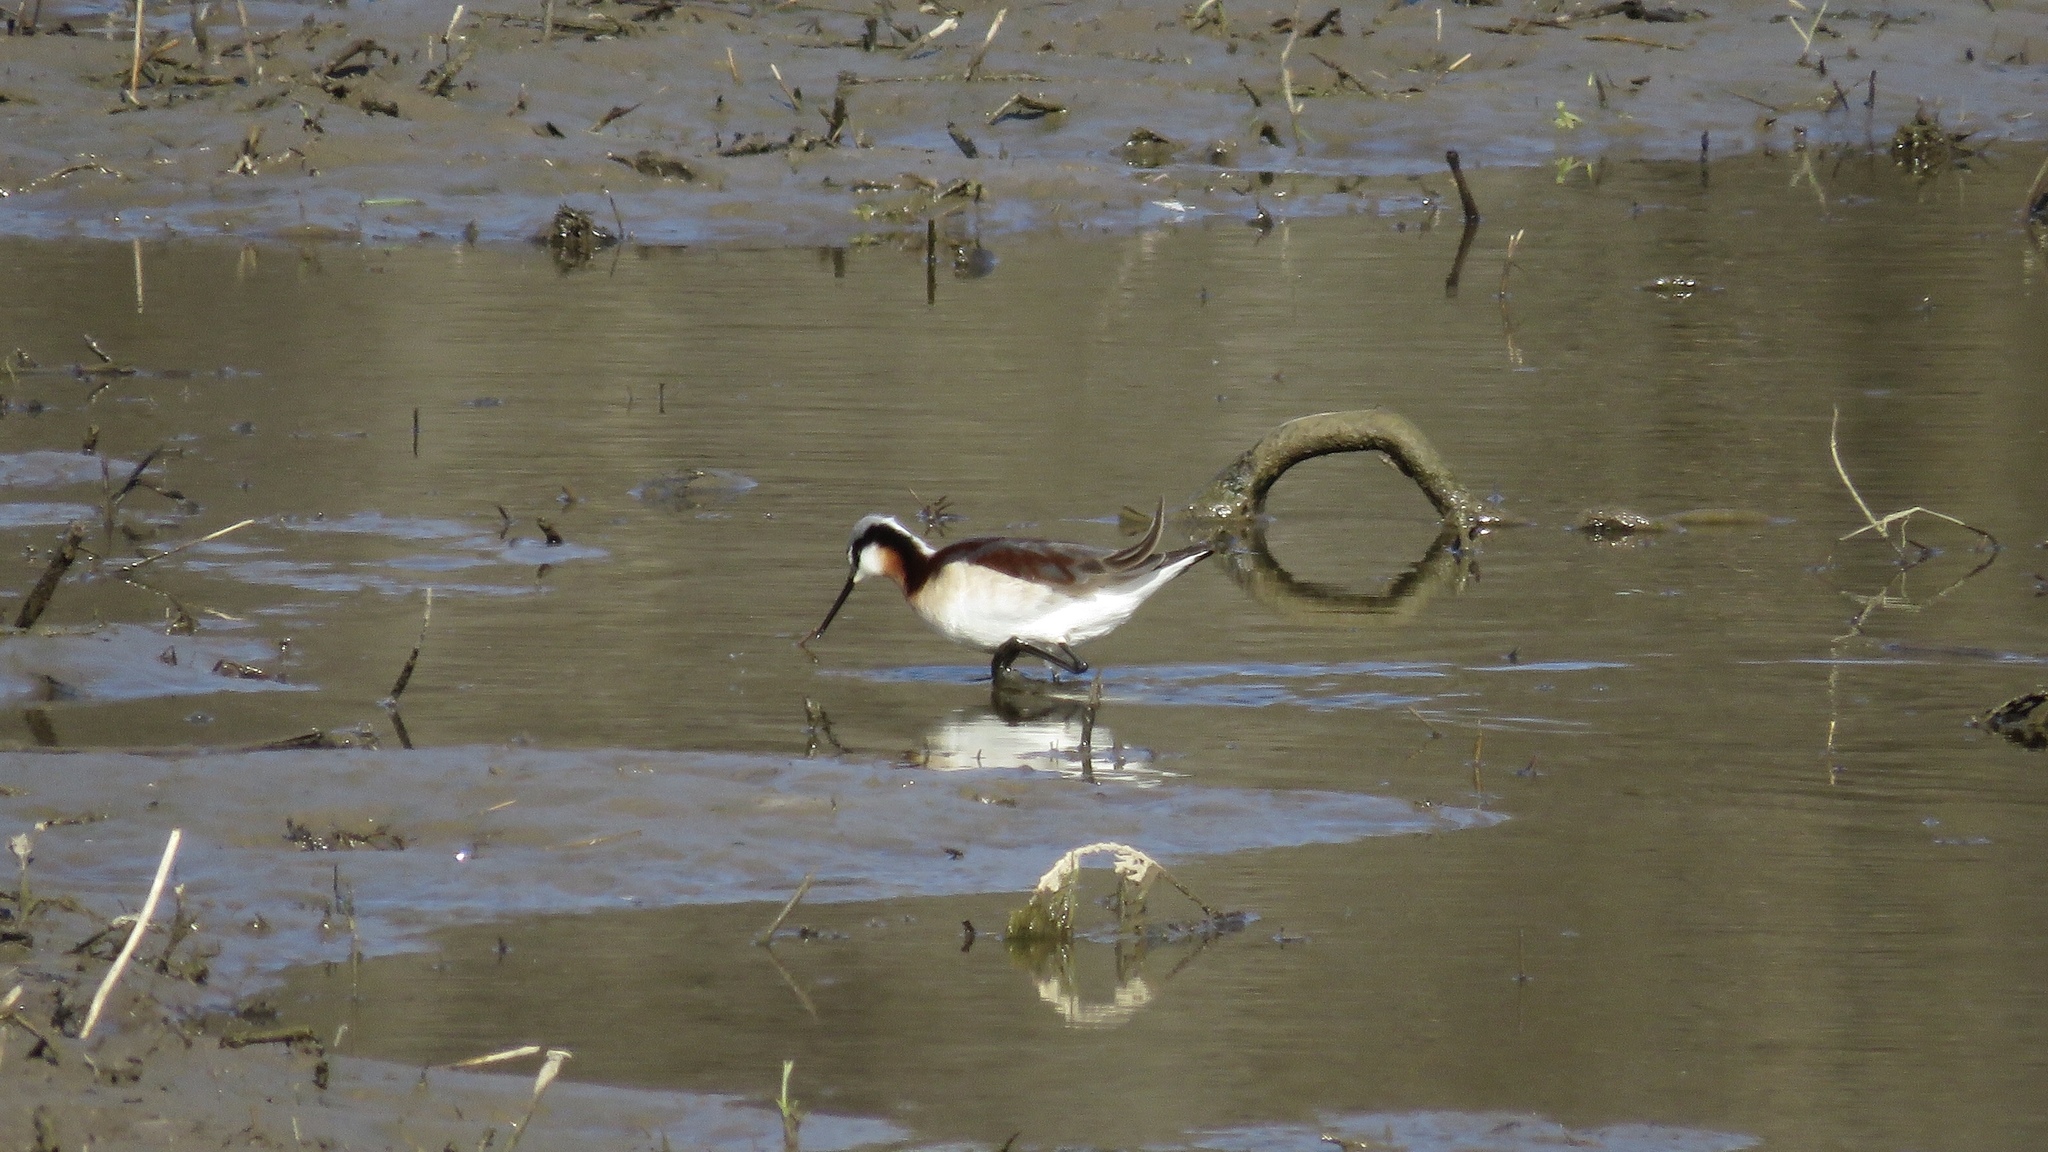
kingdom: Animalia
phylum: Chordata
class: Aves
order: Charadriiformes
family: Scolopacidae
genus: Phalaropus
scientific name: Phalaropus tricolor
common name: Wilson's phalarope
